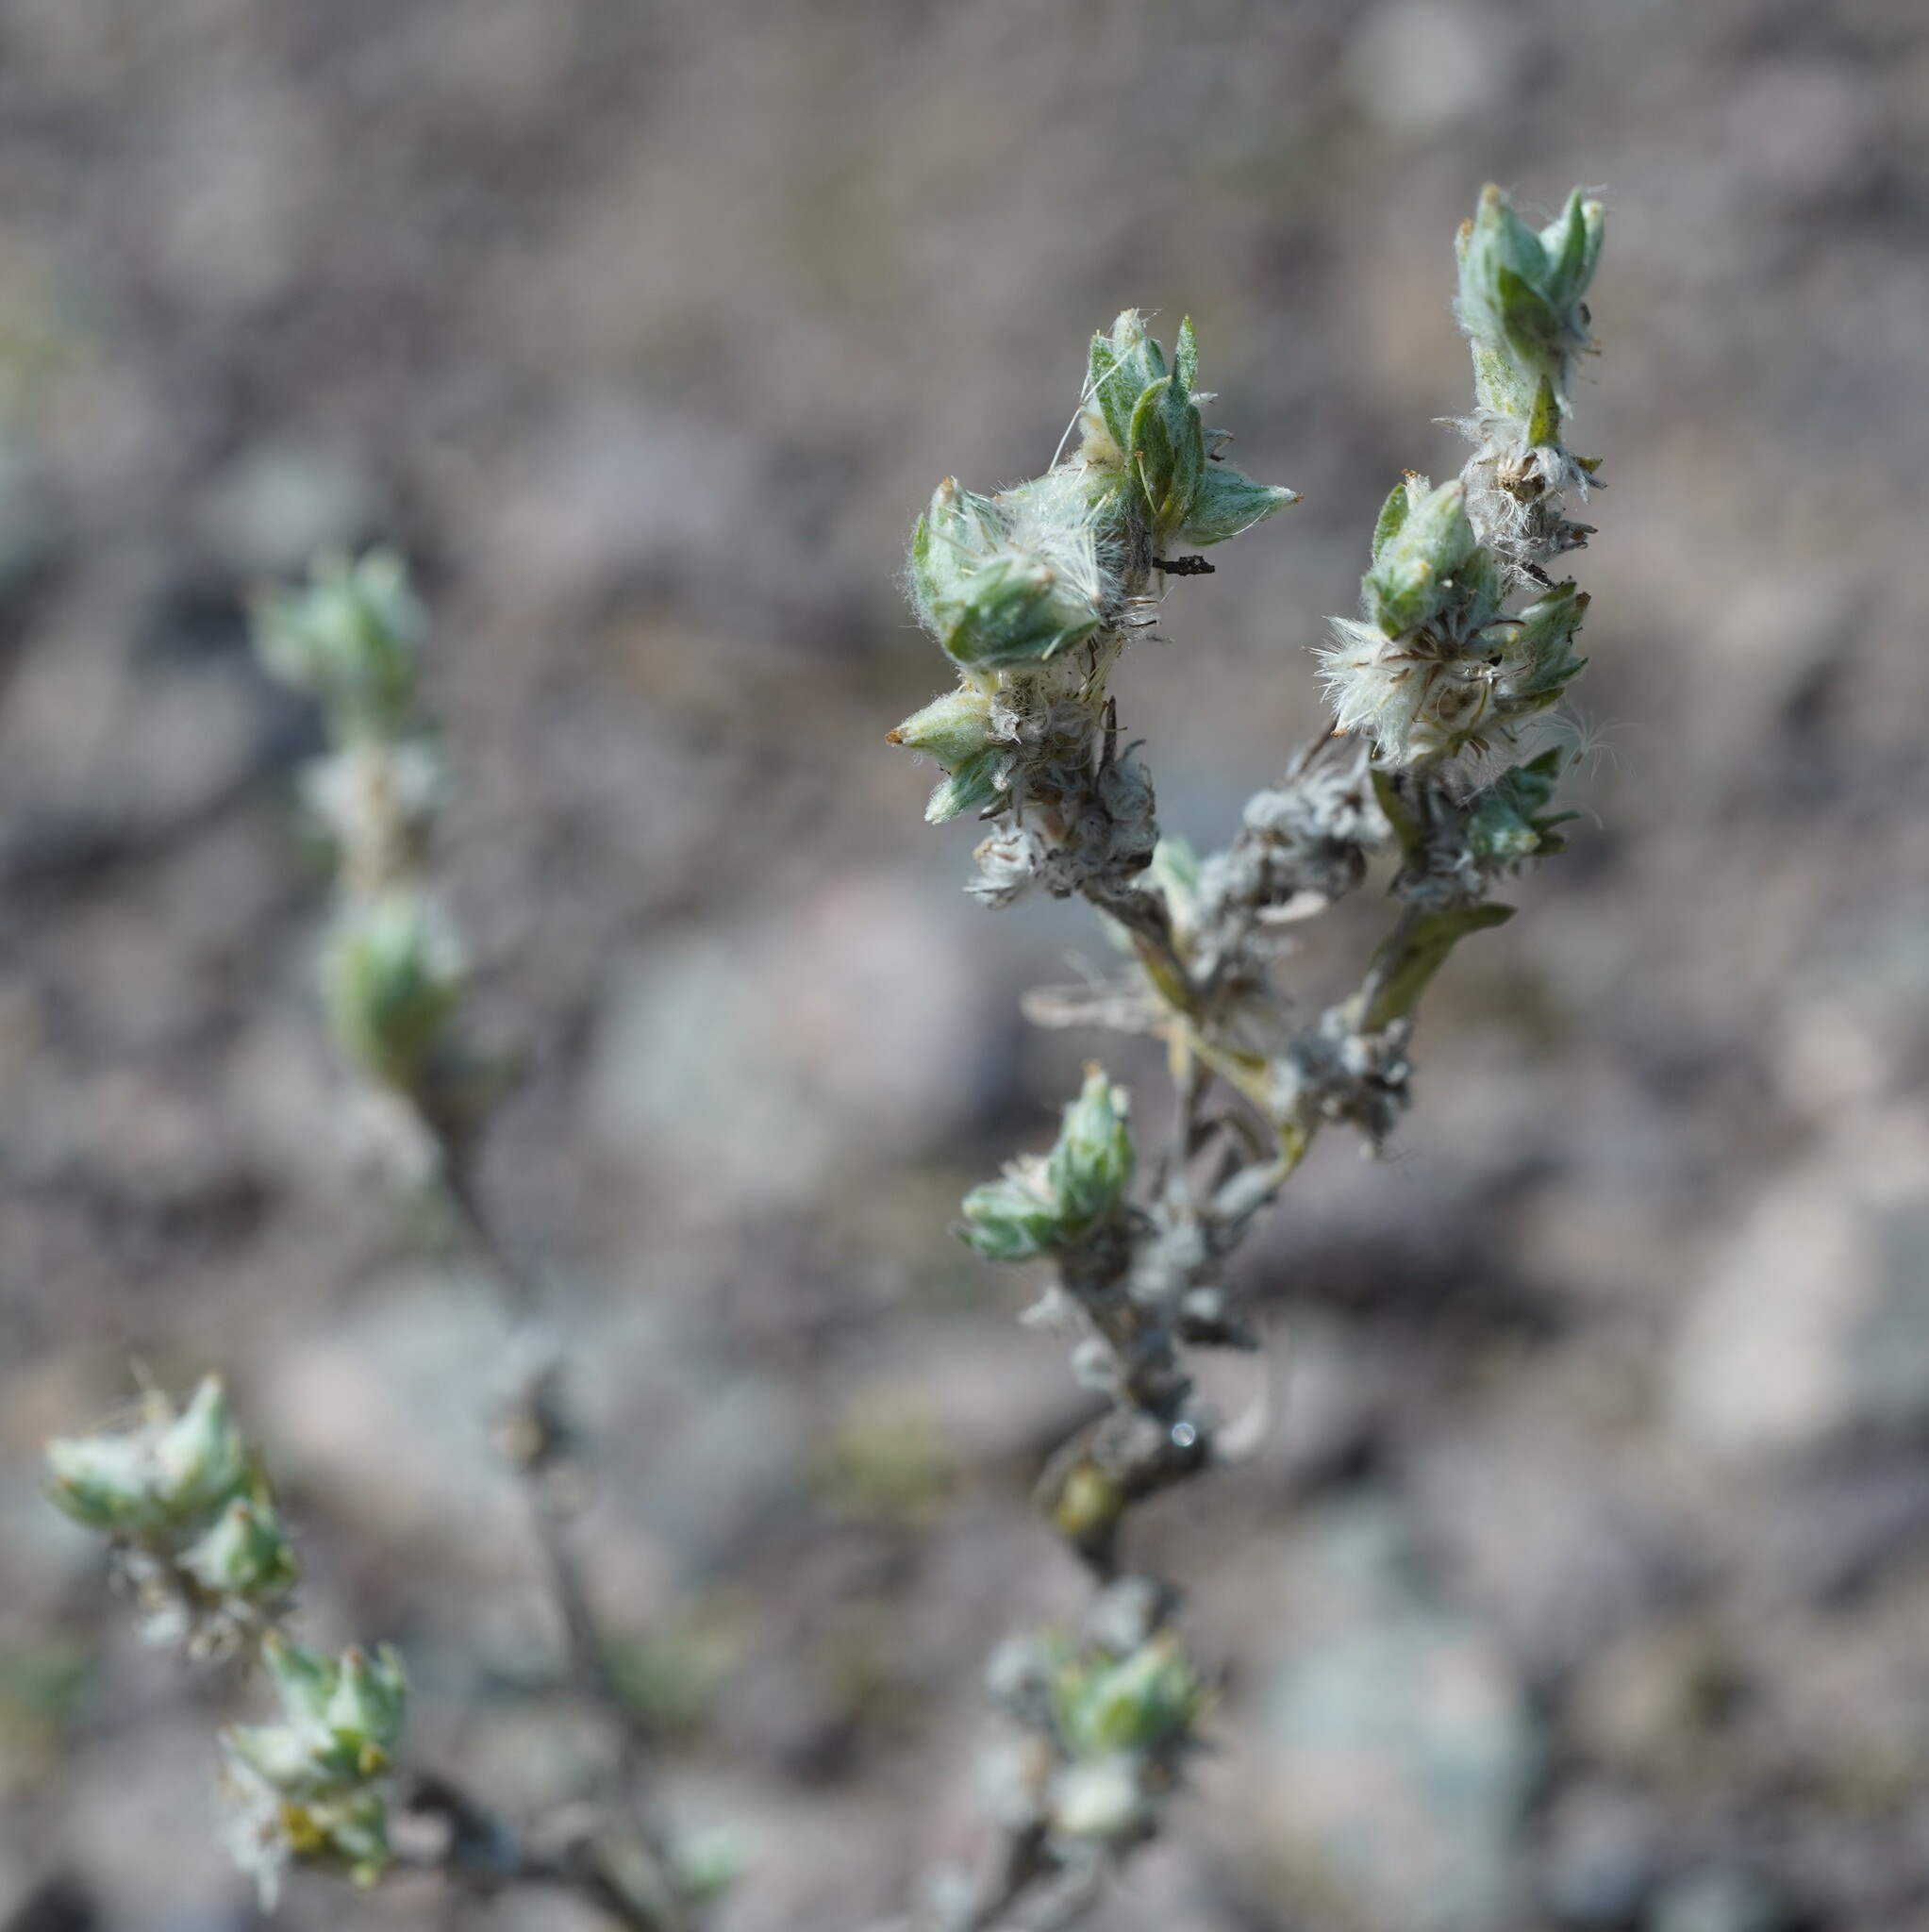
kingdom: Plantae
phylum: Tracheophyta
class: Magnoliopsida
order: Asterales
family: Asteraceae
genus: Filago
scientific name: Filago arvensis
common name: Field cudweed
